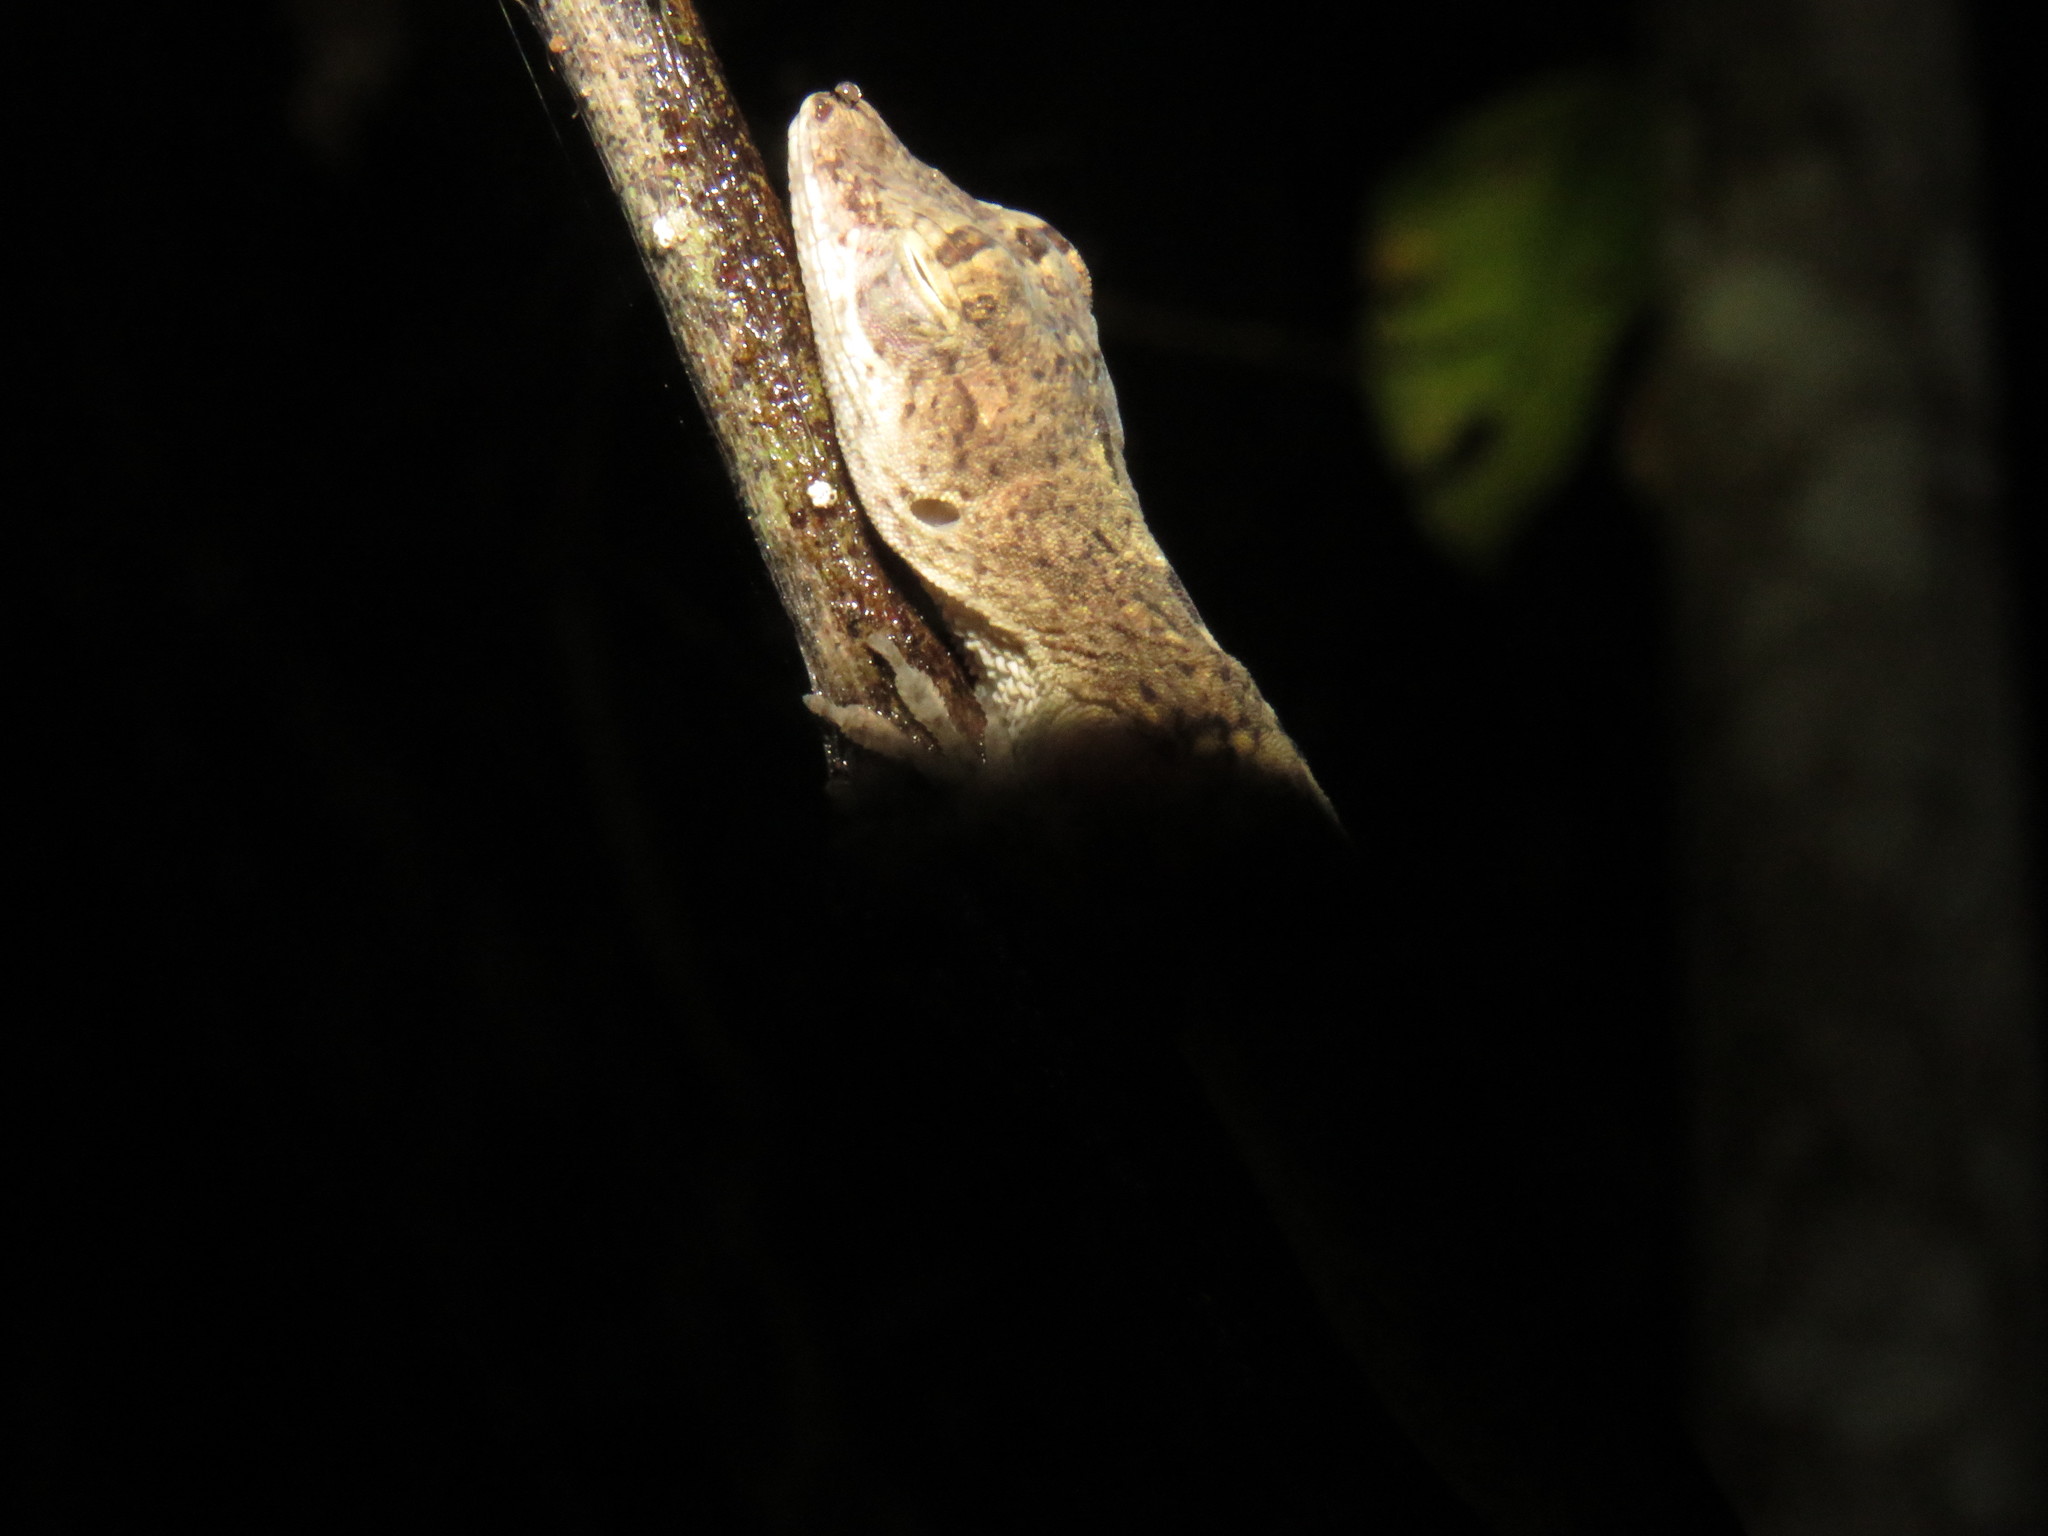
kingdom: Animalia
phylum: Chordata
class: Squamata
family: Dactyloidae
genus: Anolis
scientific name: Anolis fuscoauratus
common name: Brown-eared anole
